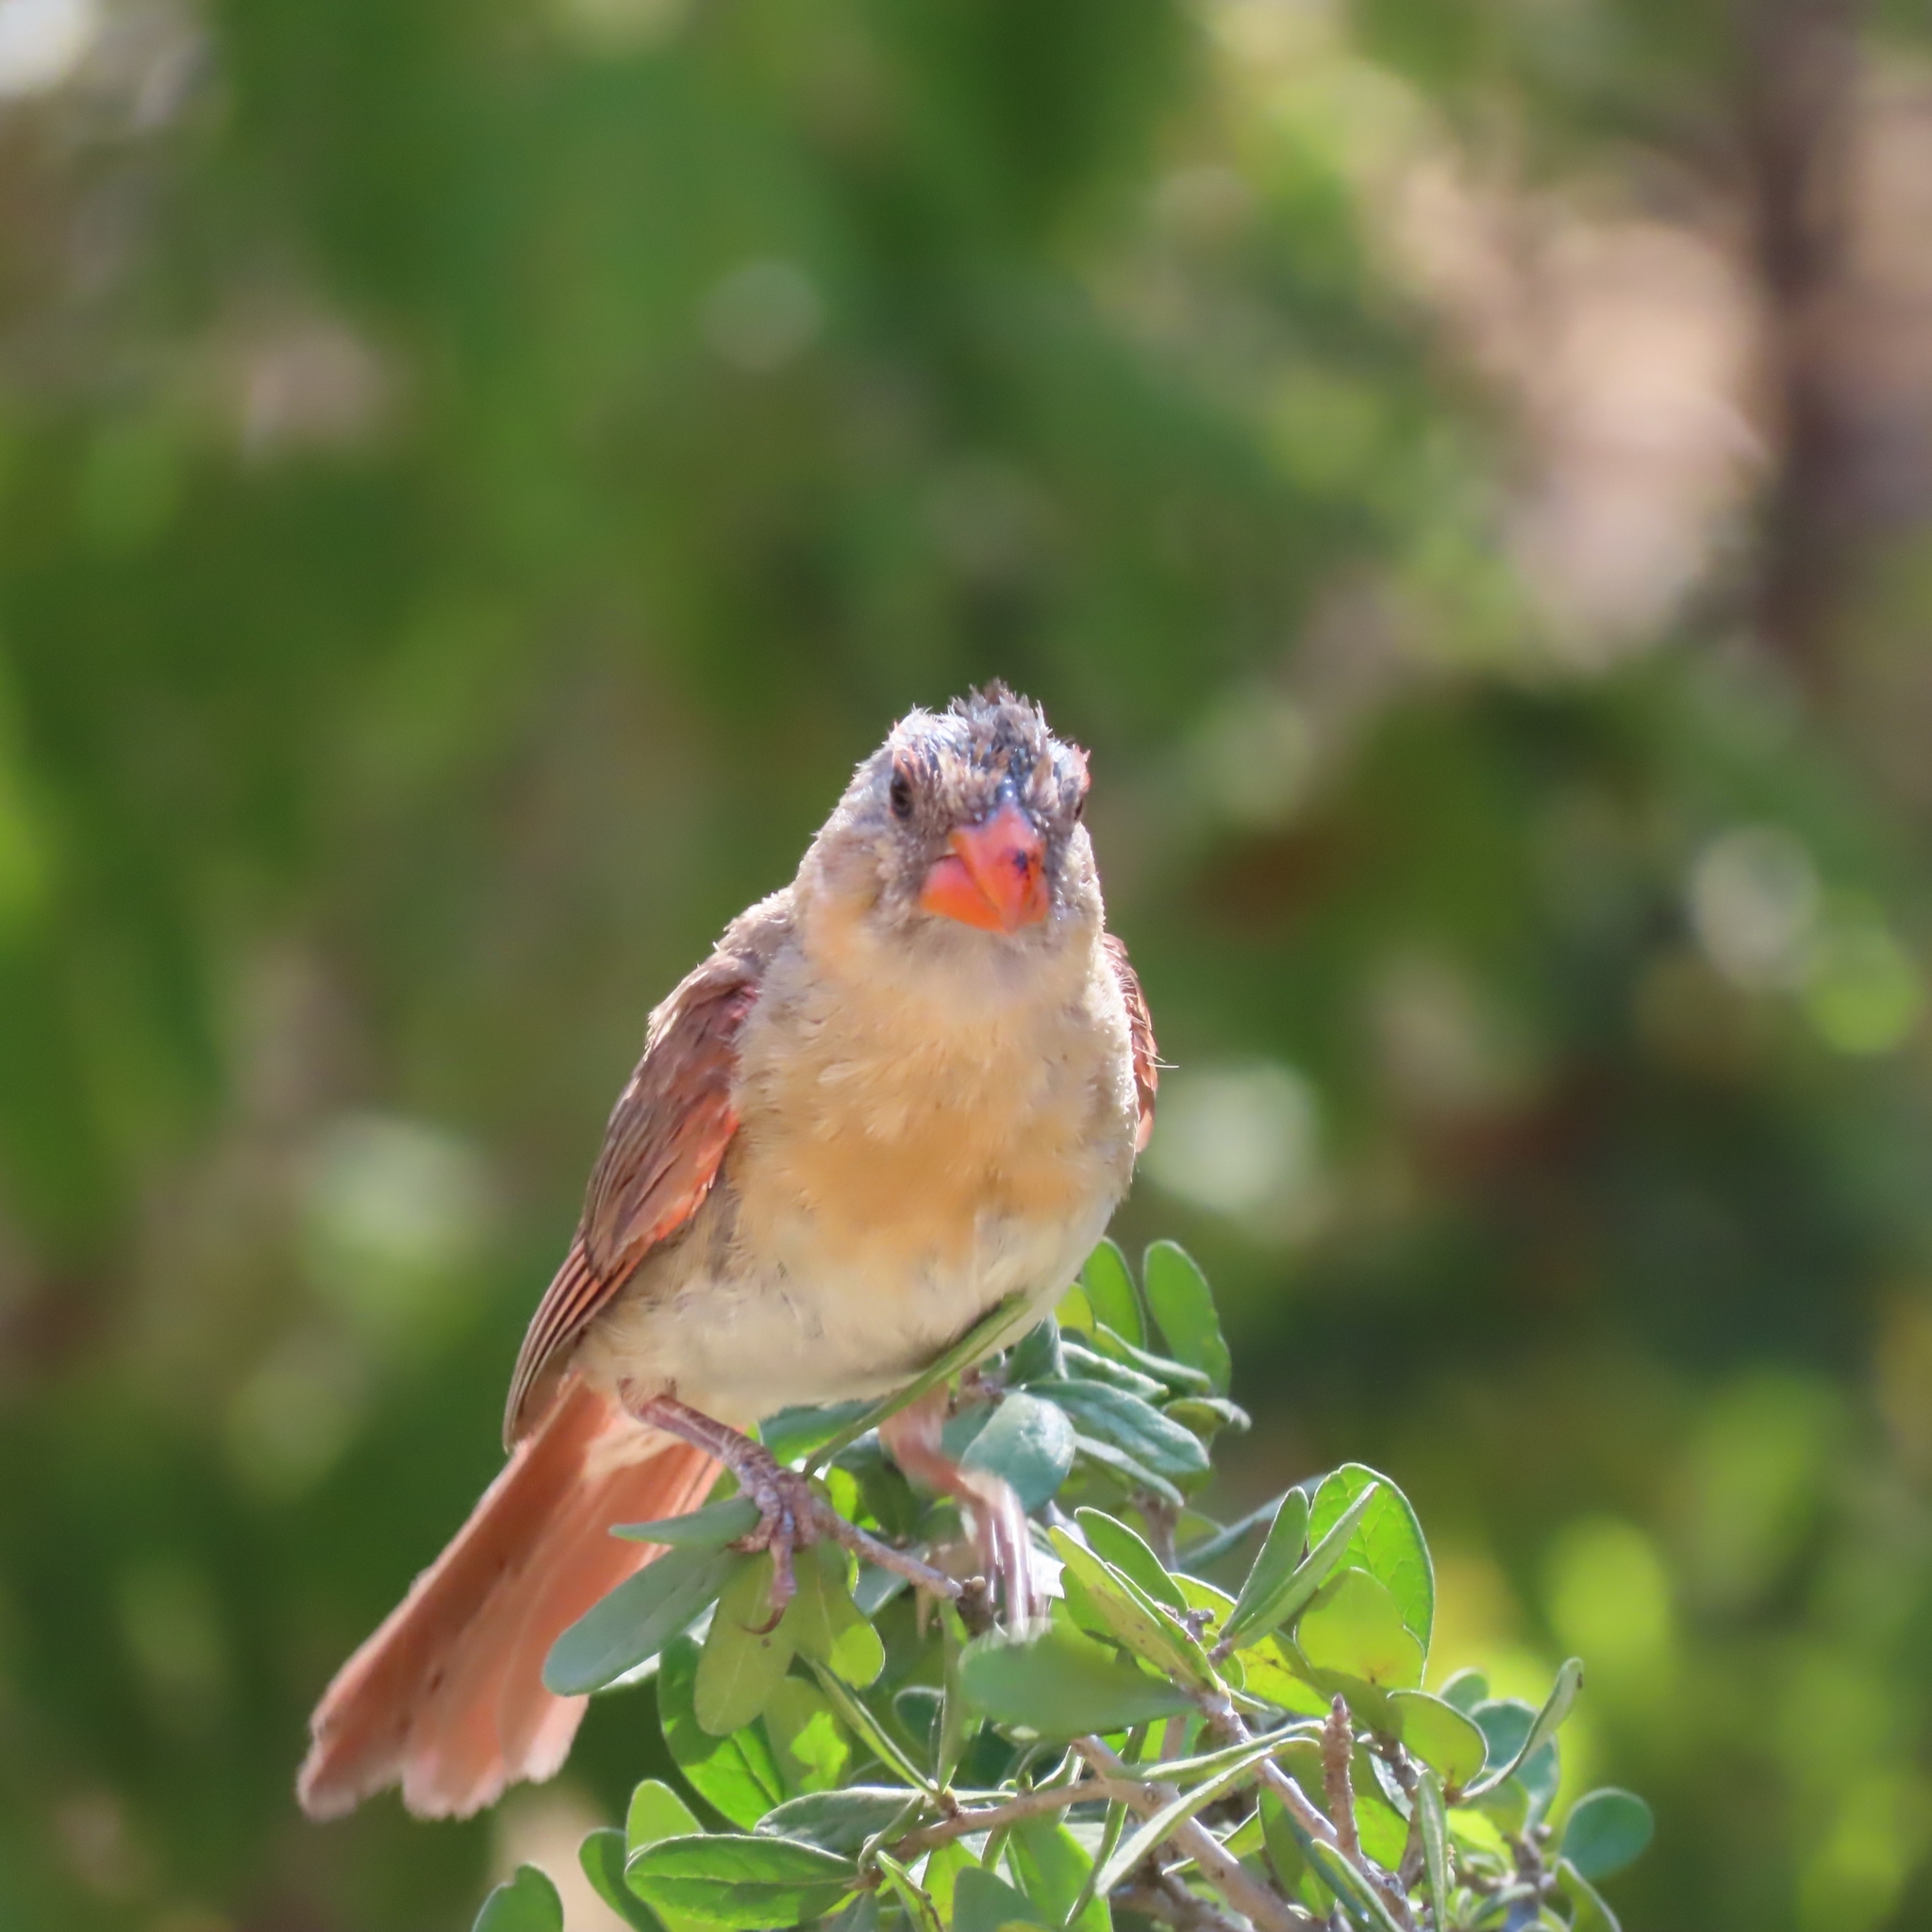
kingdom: Animalia
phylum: Chordata
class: Aves
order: Passeriformes
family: Cardinalidae
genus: Cardinalis
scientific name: Cardinalis cardinalis
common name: Northern cardinal
